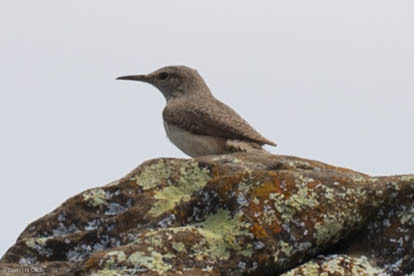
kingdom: Animalia
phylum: Chordata
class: Aves
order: Passeriformes
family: Troglodytidae
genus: Salpinctes
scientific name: Salpinctes obsoletus
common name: Rock wren
